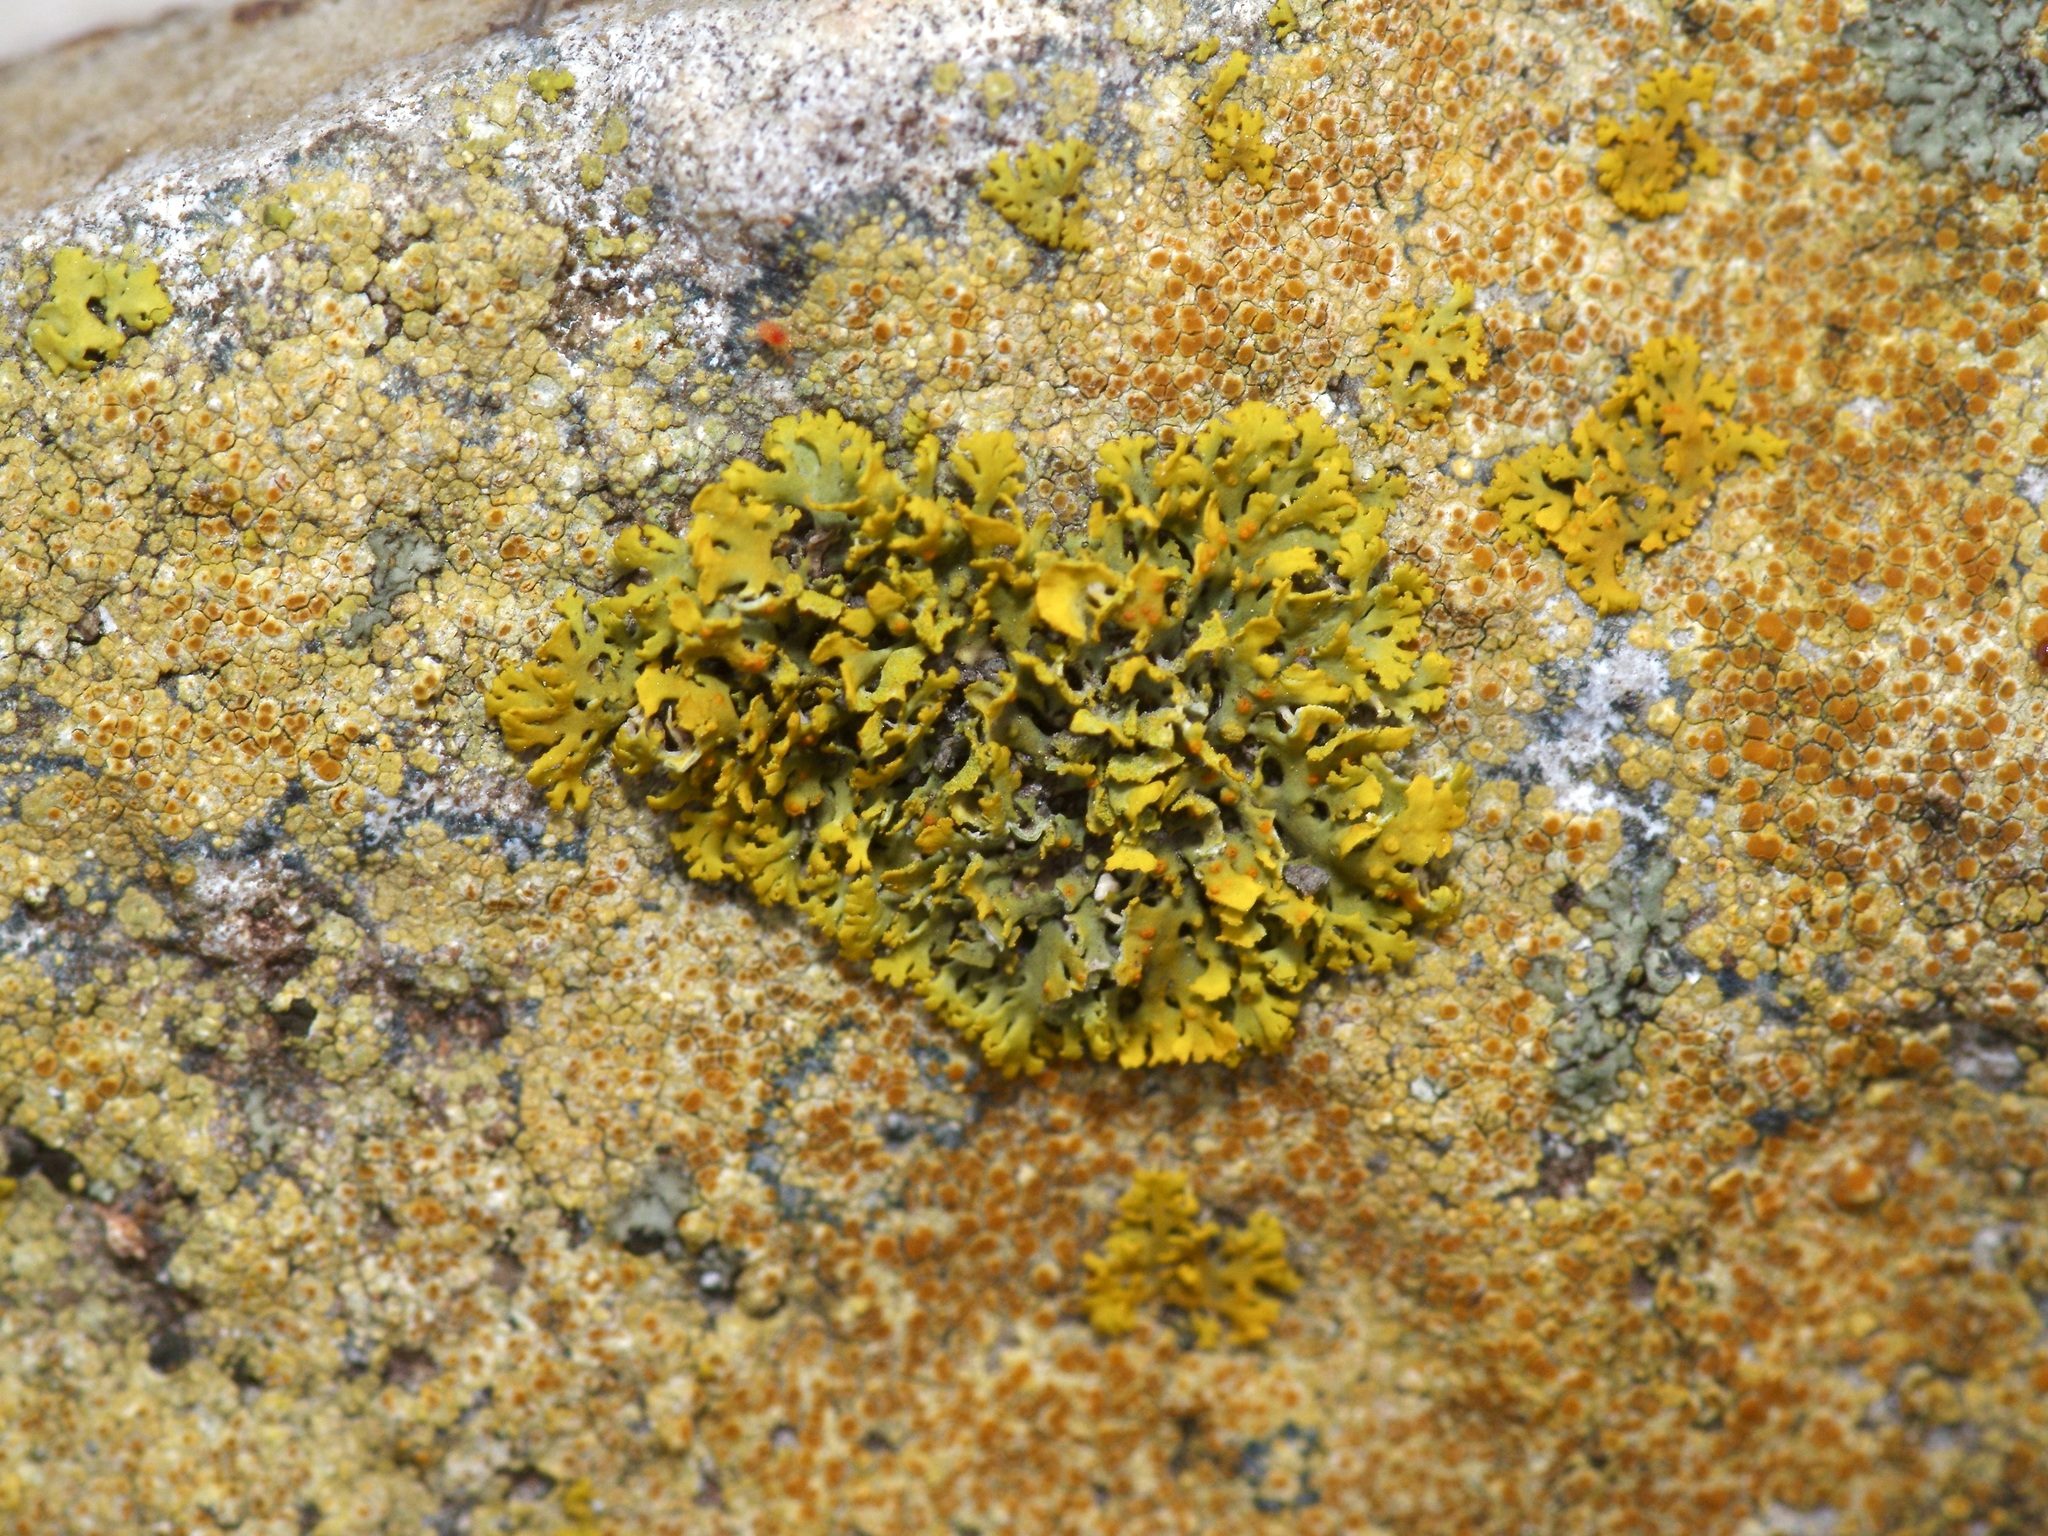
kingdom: Fungi
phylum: Ascomycota
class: Lecanoromycetes
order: Teloschistales
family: Teloschistaceae
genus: Gallowayella
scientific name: Gallowayella fulva
